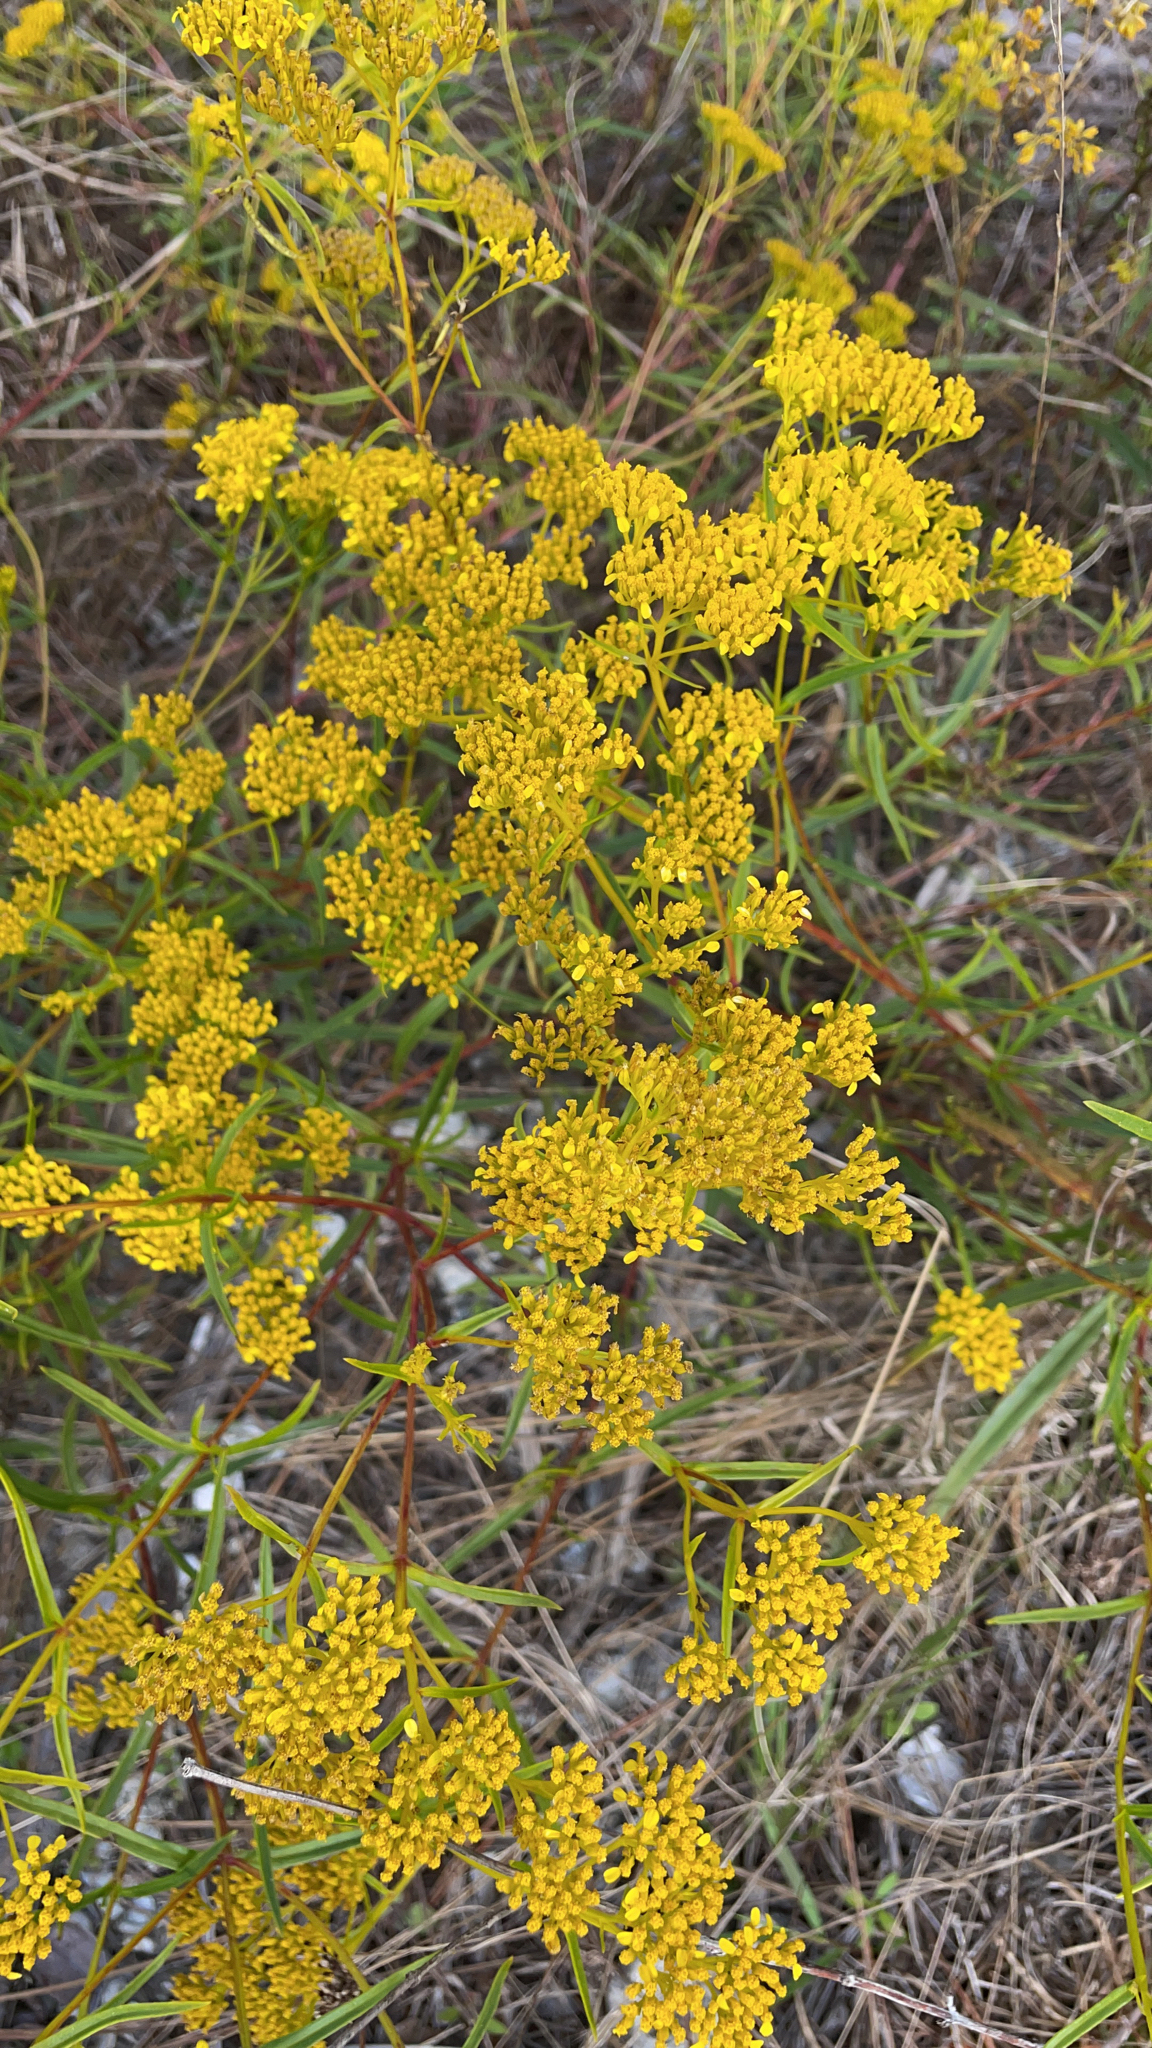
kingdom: Plantae
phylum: Tracheophyta
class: Magnoliopsida
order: Asterales
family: Asteraceae
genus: Flaveria
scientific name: Flaveria linearis
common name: Yellowtop
